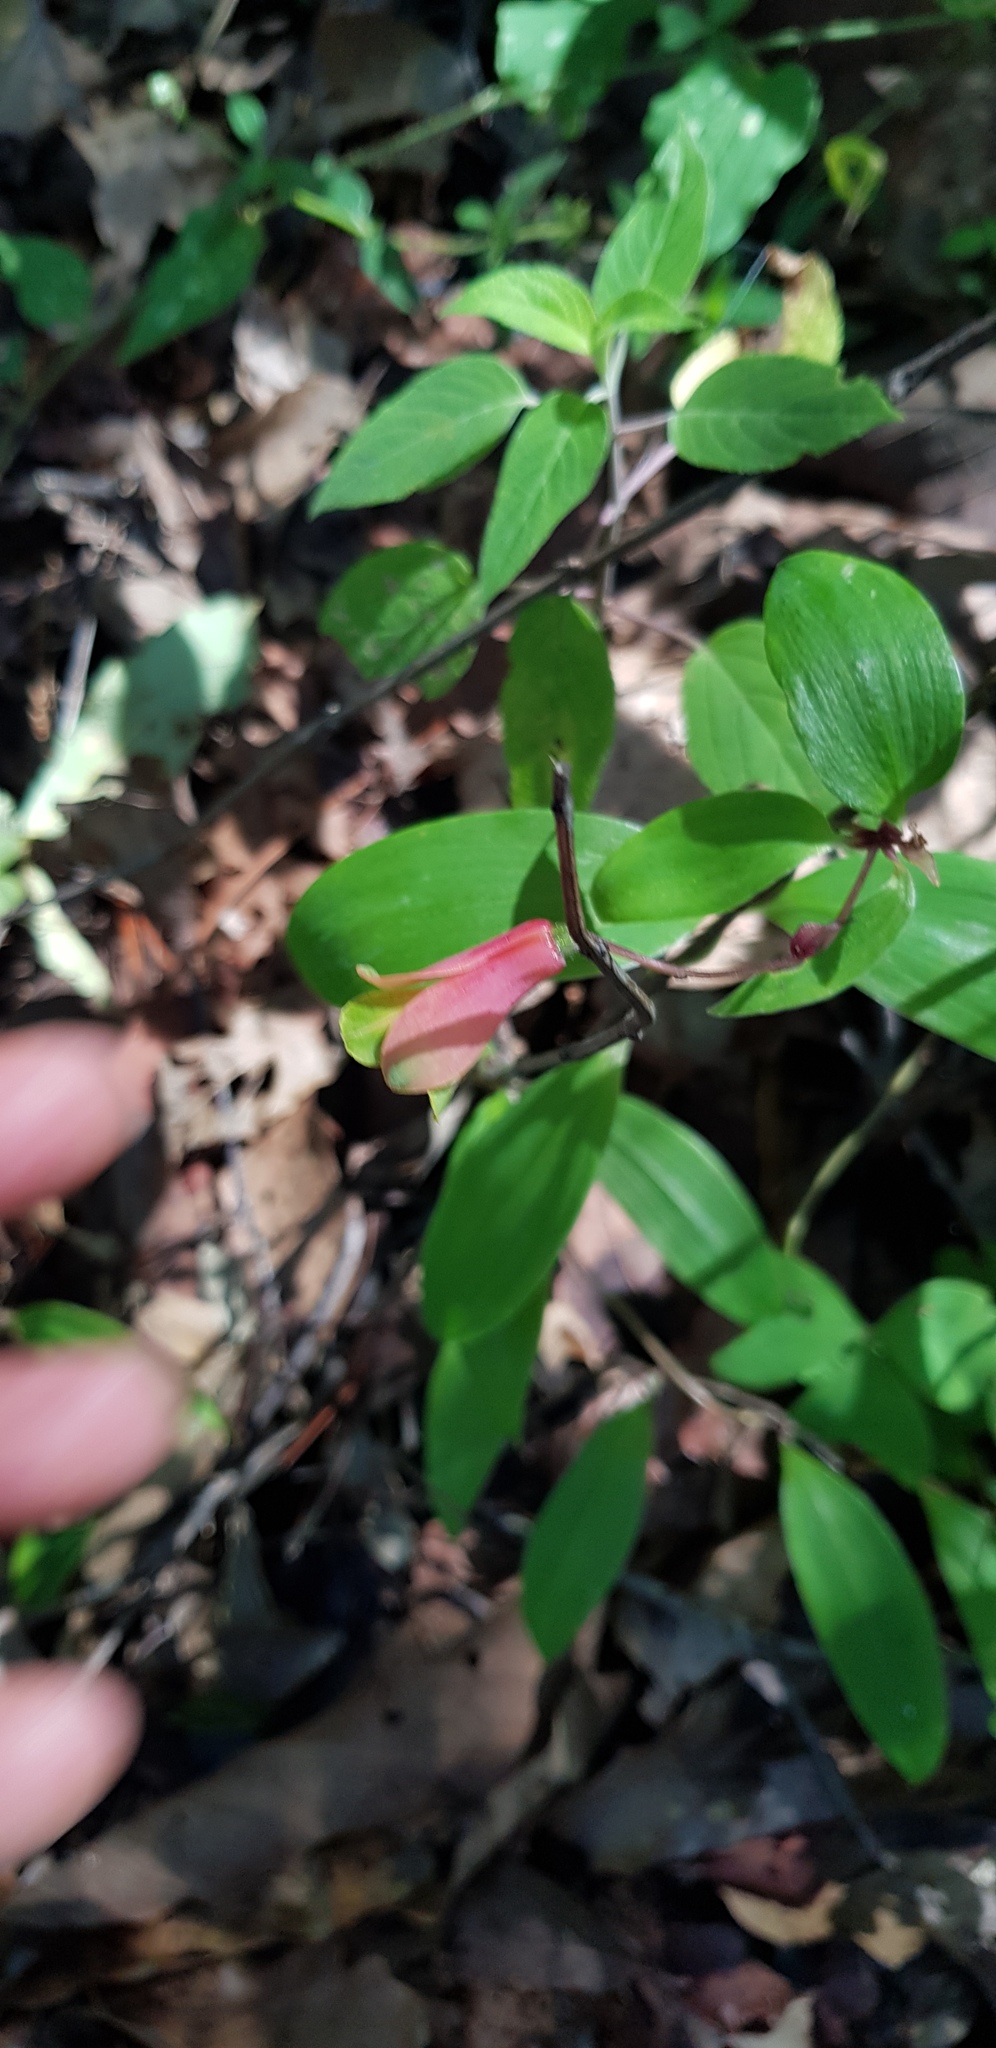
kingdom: Plantae
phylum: Tracheophyta
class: Liliopsida
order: Liliales
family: Alstroemeriaceae
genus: Bomarea
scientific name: Bomarea edulis
